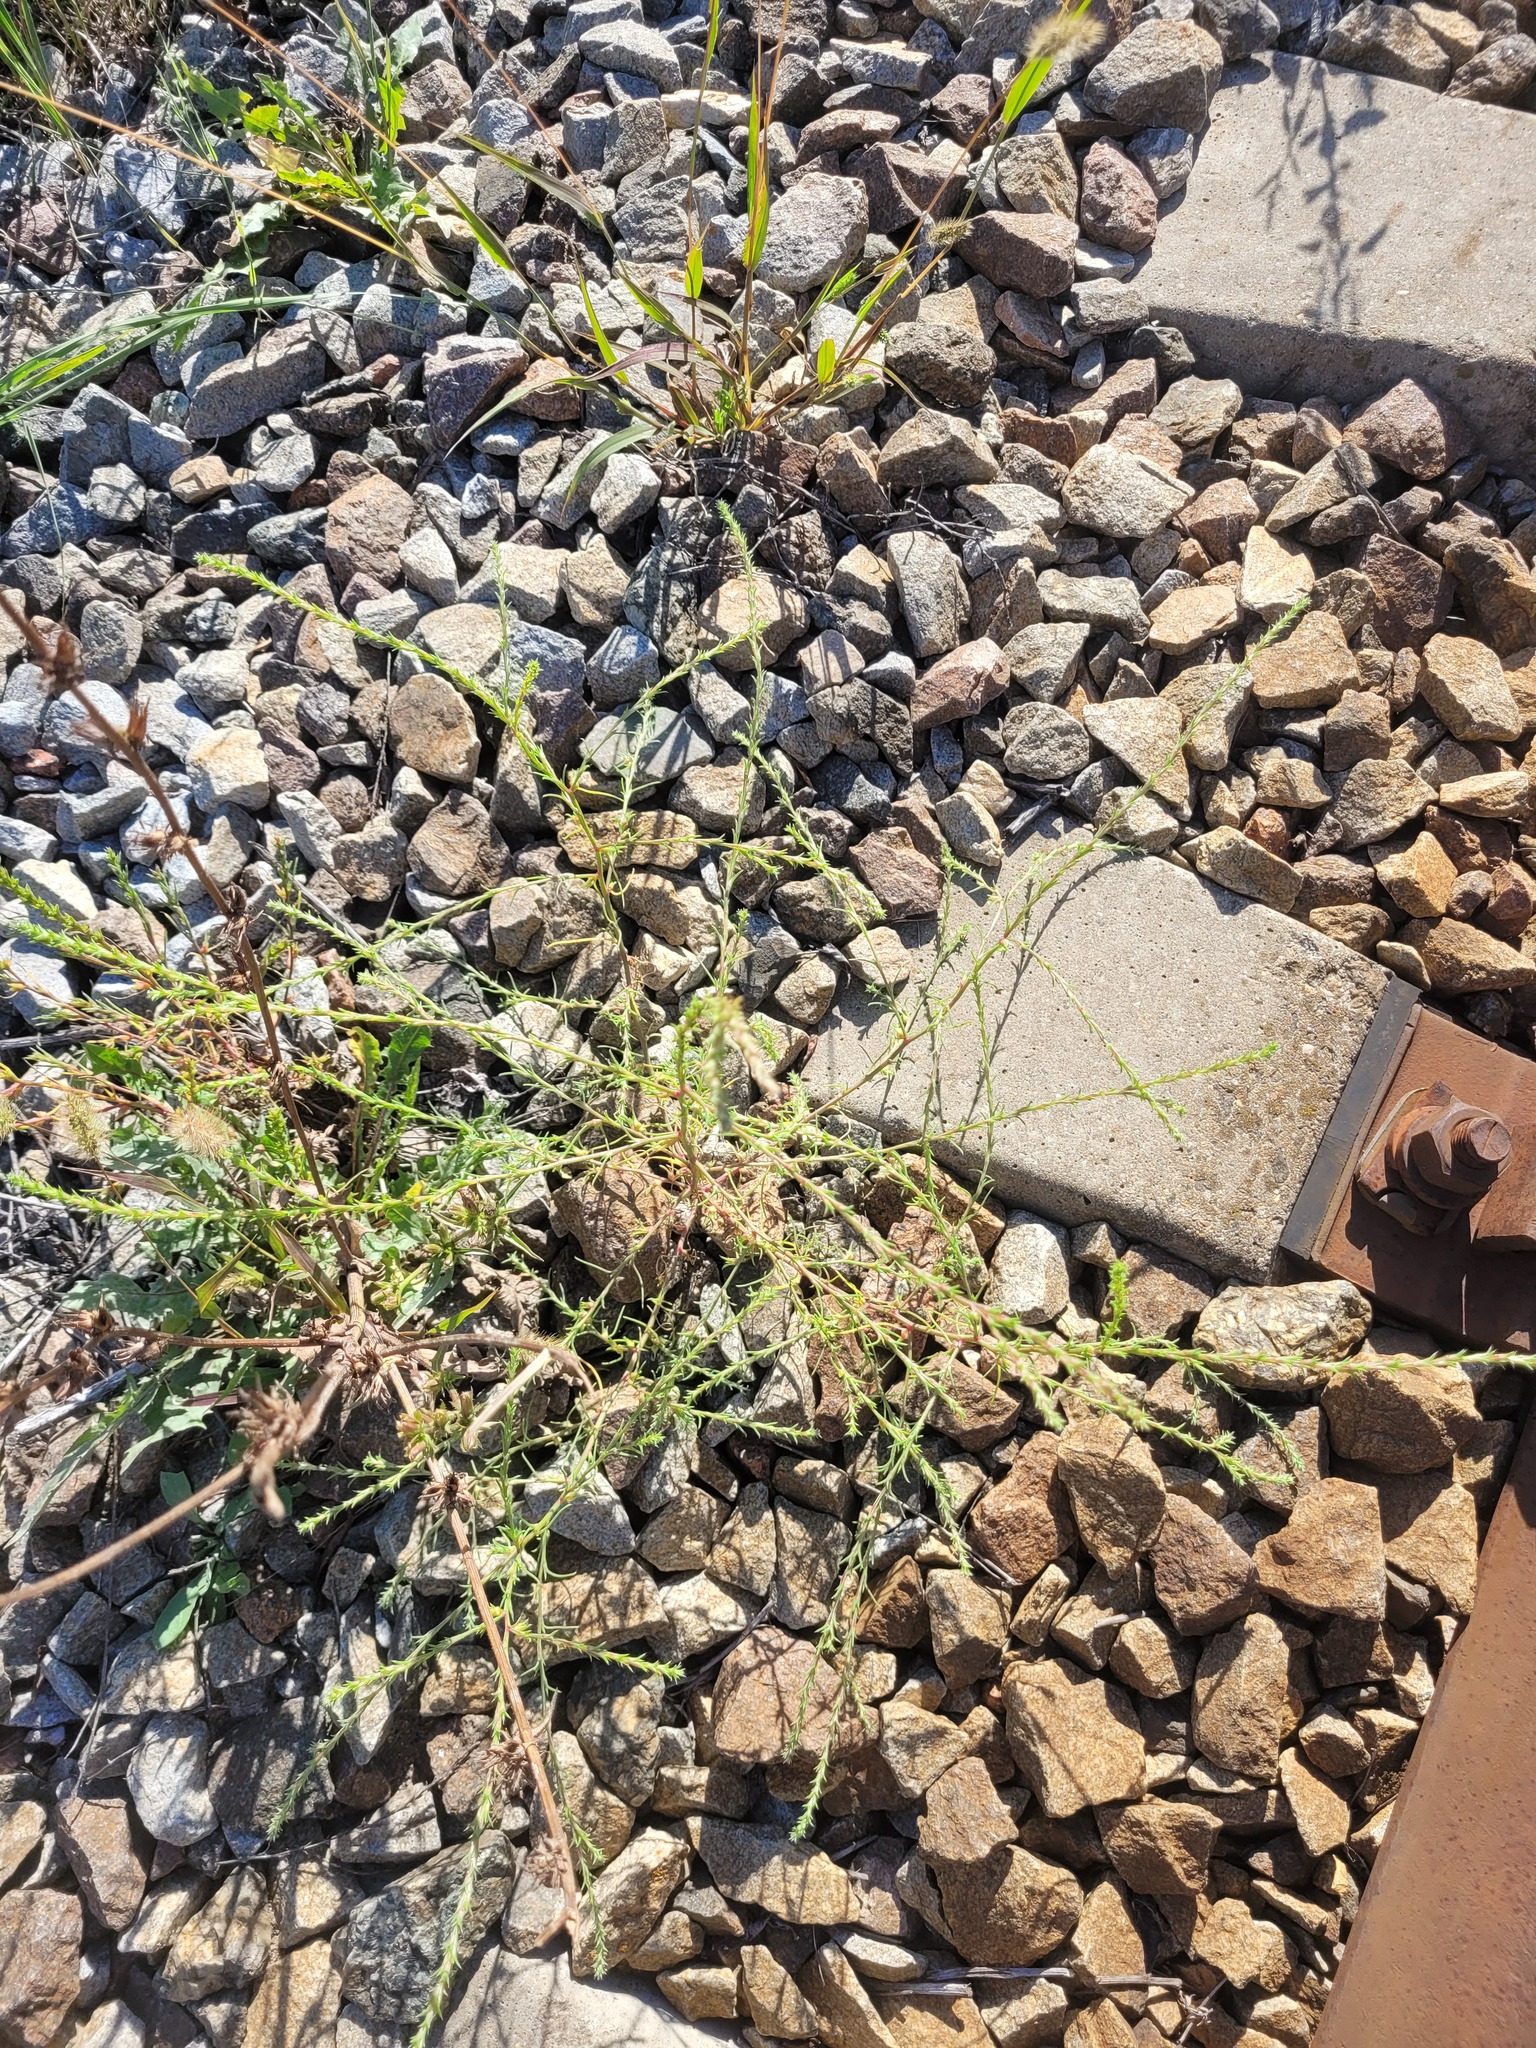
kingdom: Plantae
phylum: Tracheophyta
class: Magnoliopsida
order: Caryophyllales
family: Amaranthaceae
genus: Salsola
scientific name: Salsola collina
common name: Tumbleweed
